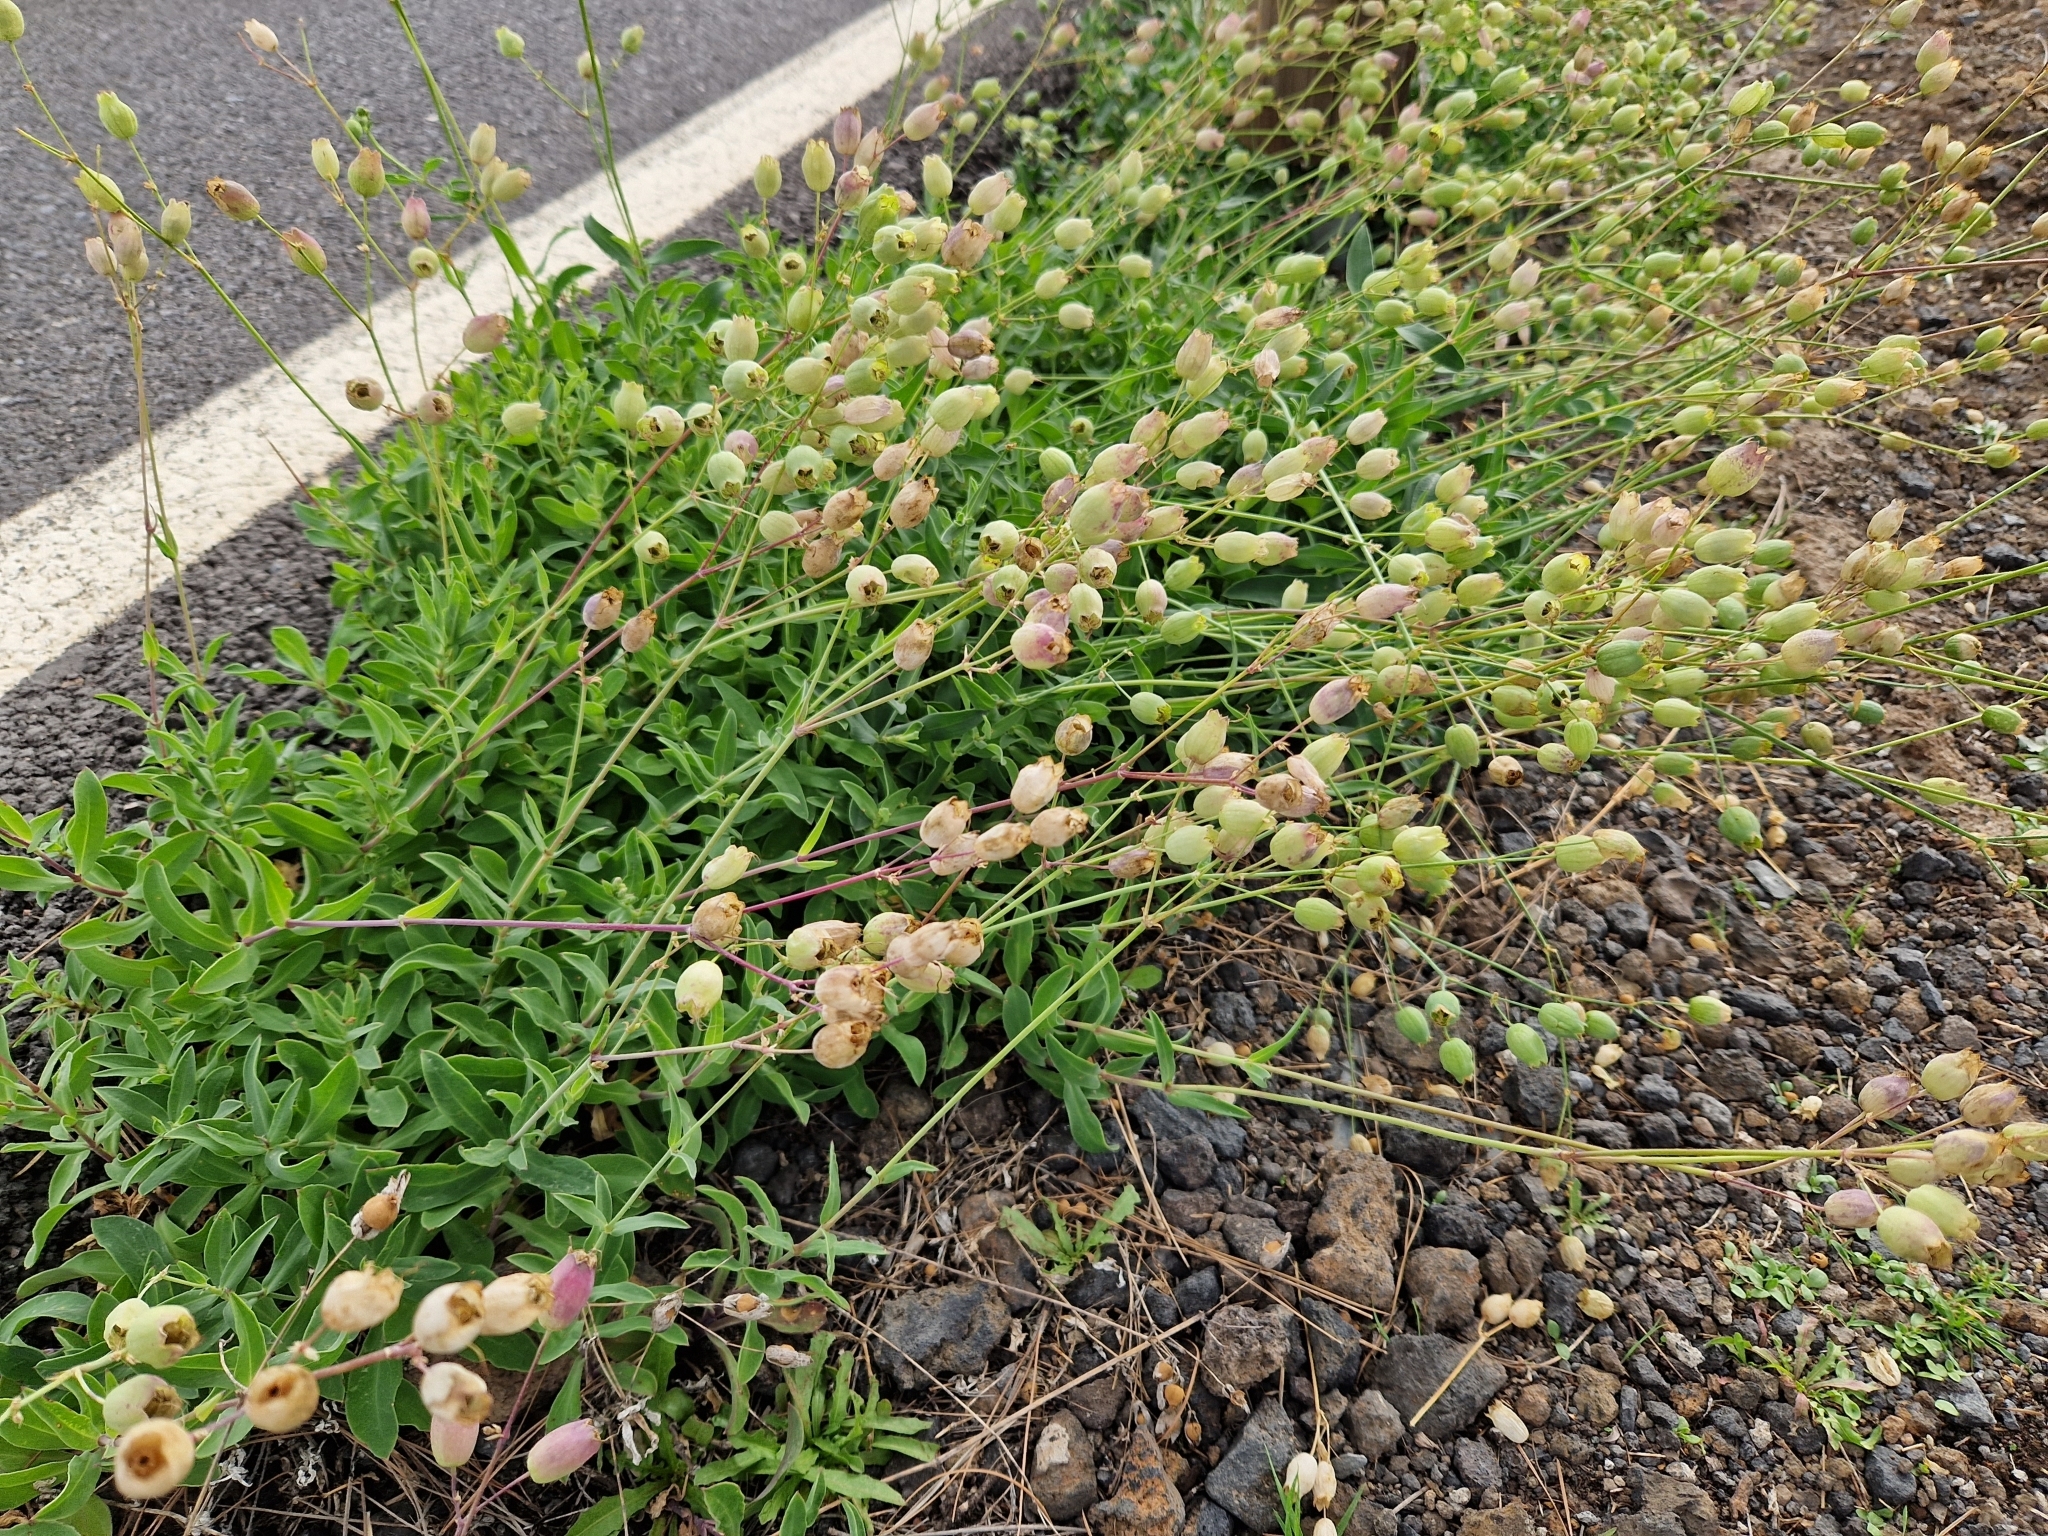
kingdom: Plantae
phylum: Tracheophyta
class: Magnoliopsida
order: Caryophyllales
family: Caryophyllaceae
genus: Silene
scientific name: Silene vulgaris
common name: Bladder campion
